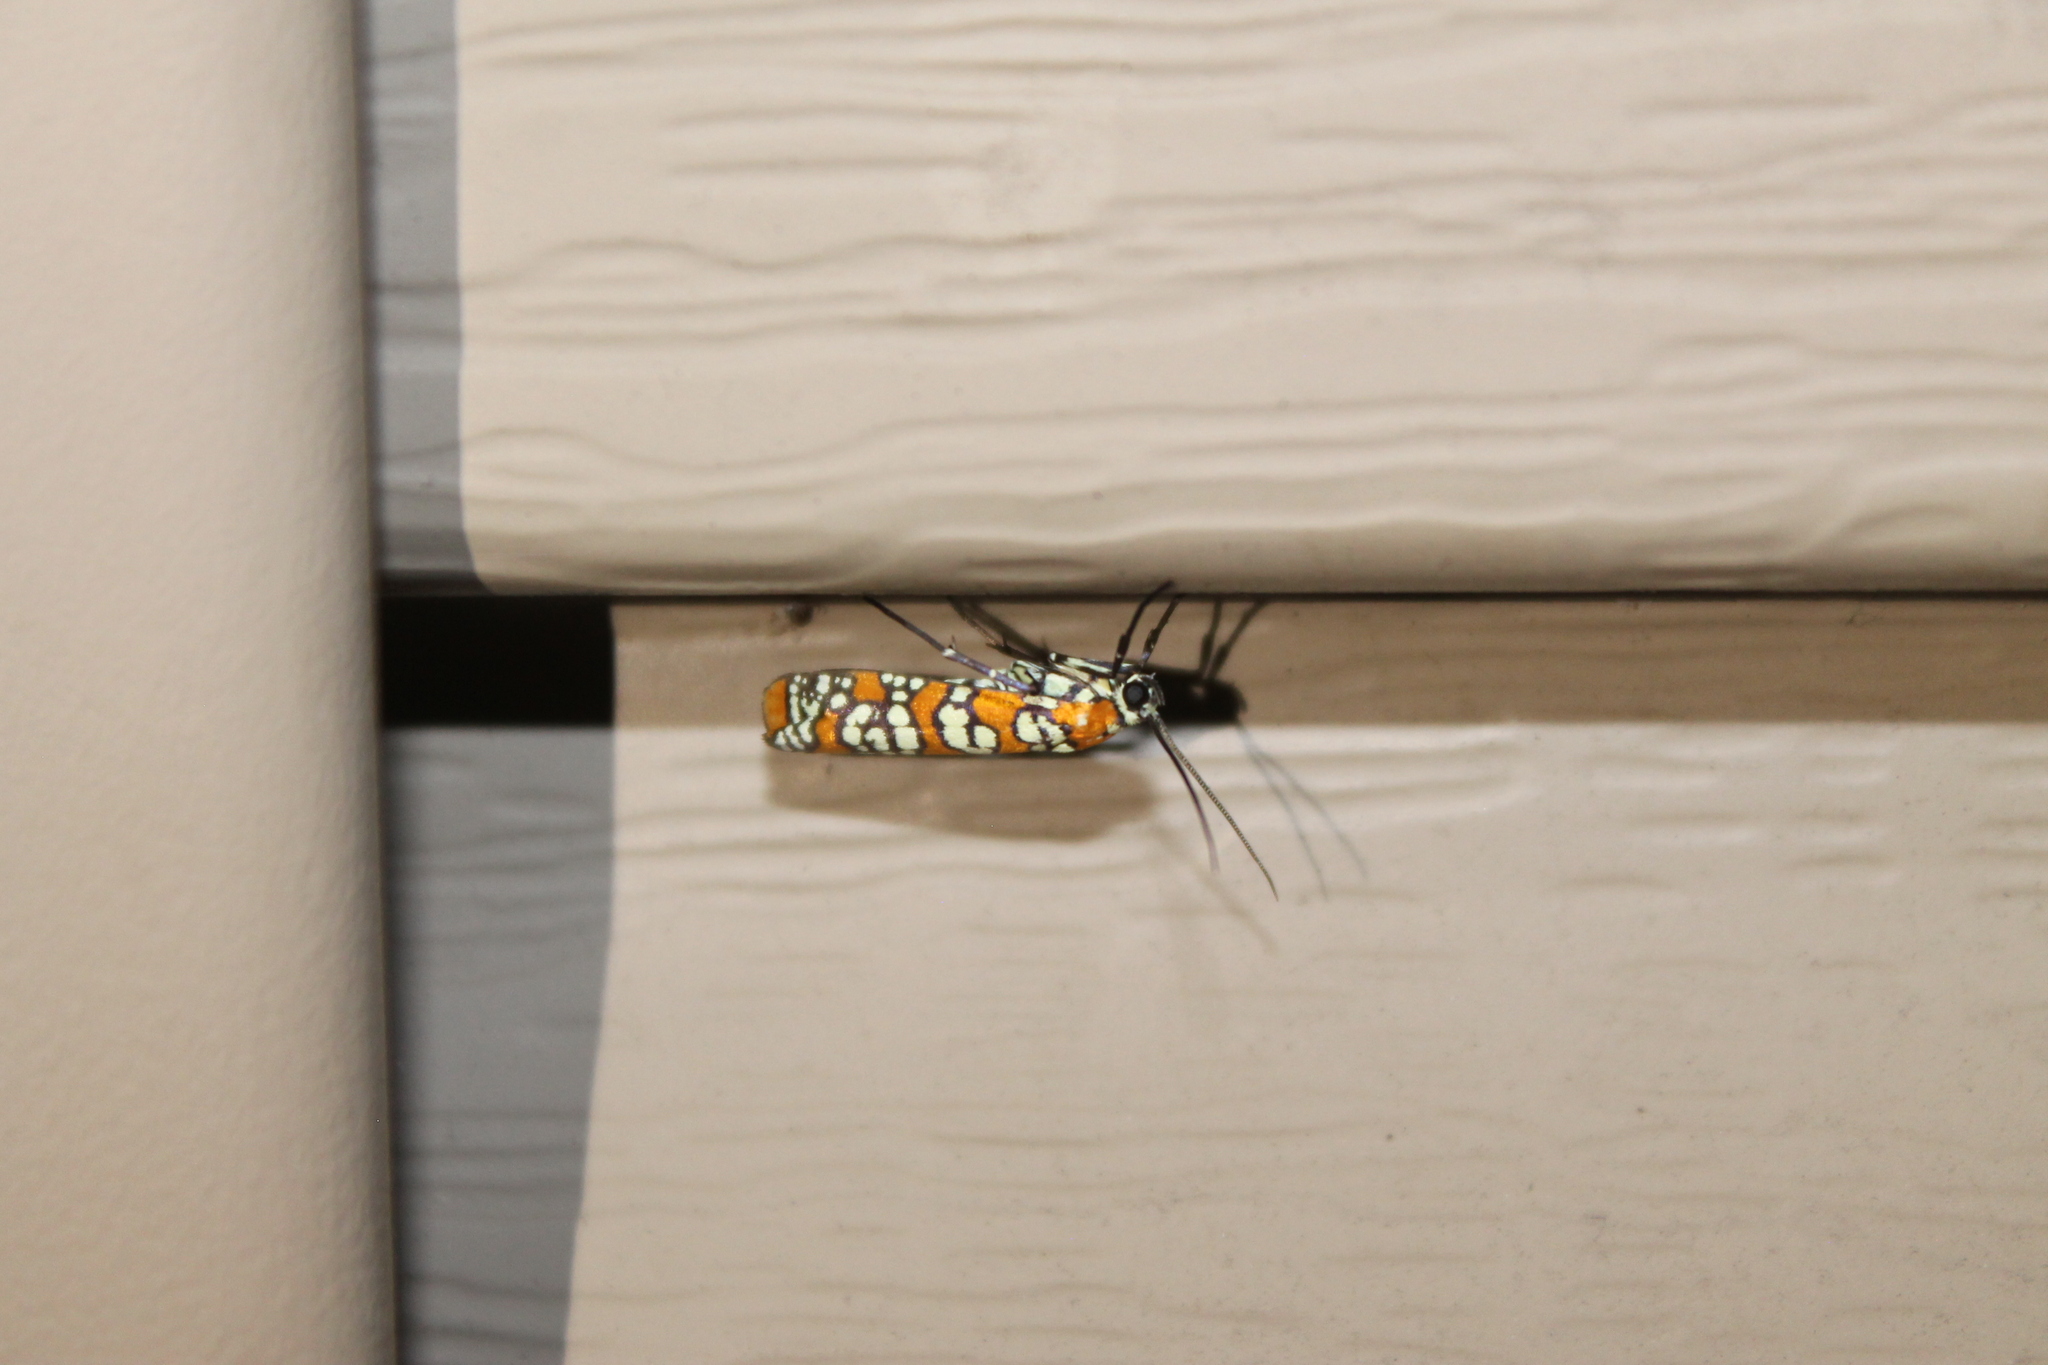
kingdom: Animalia
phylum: Arthropoda
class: Insecta
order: Lepidoptera
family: Attevidae
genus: Atteva
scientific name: Atteva punctella
